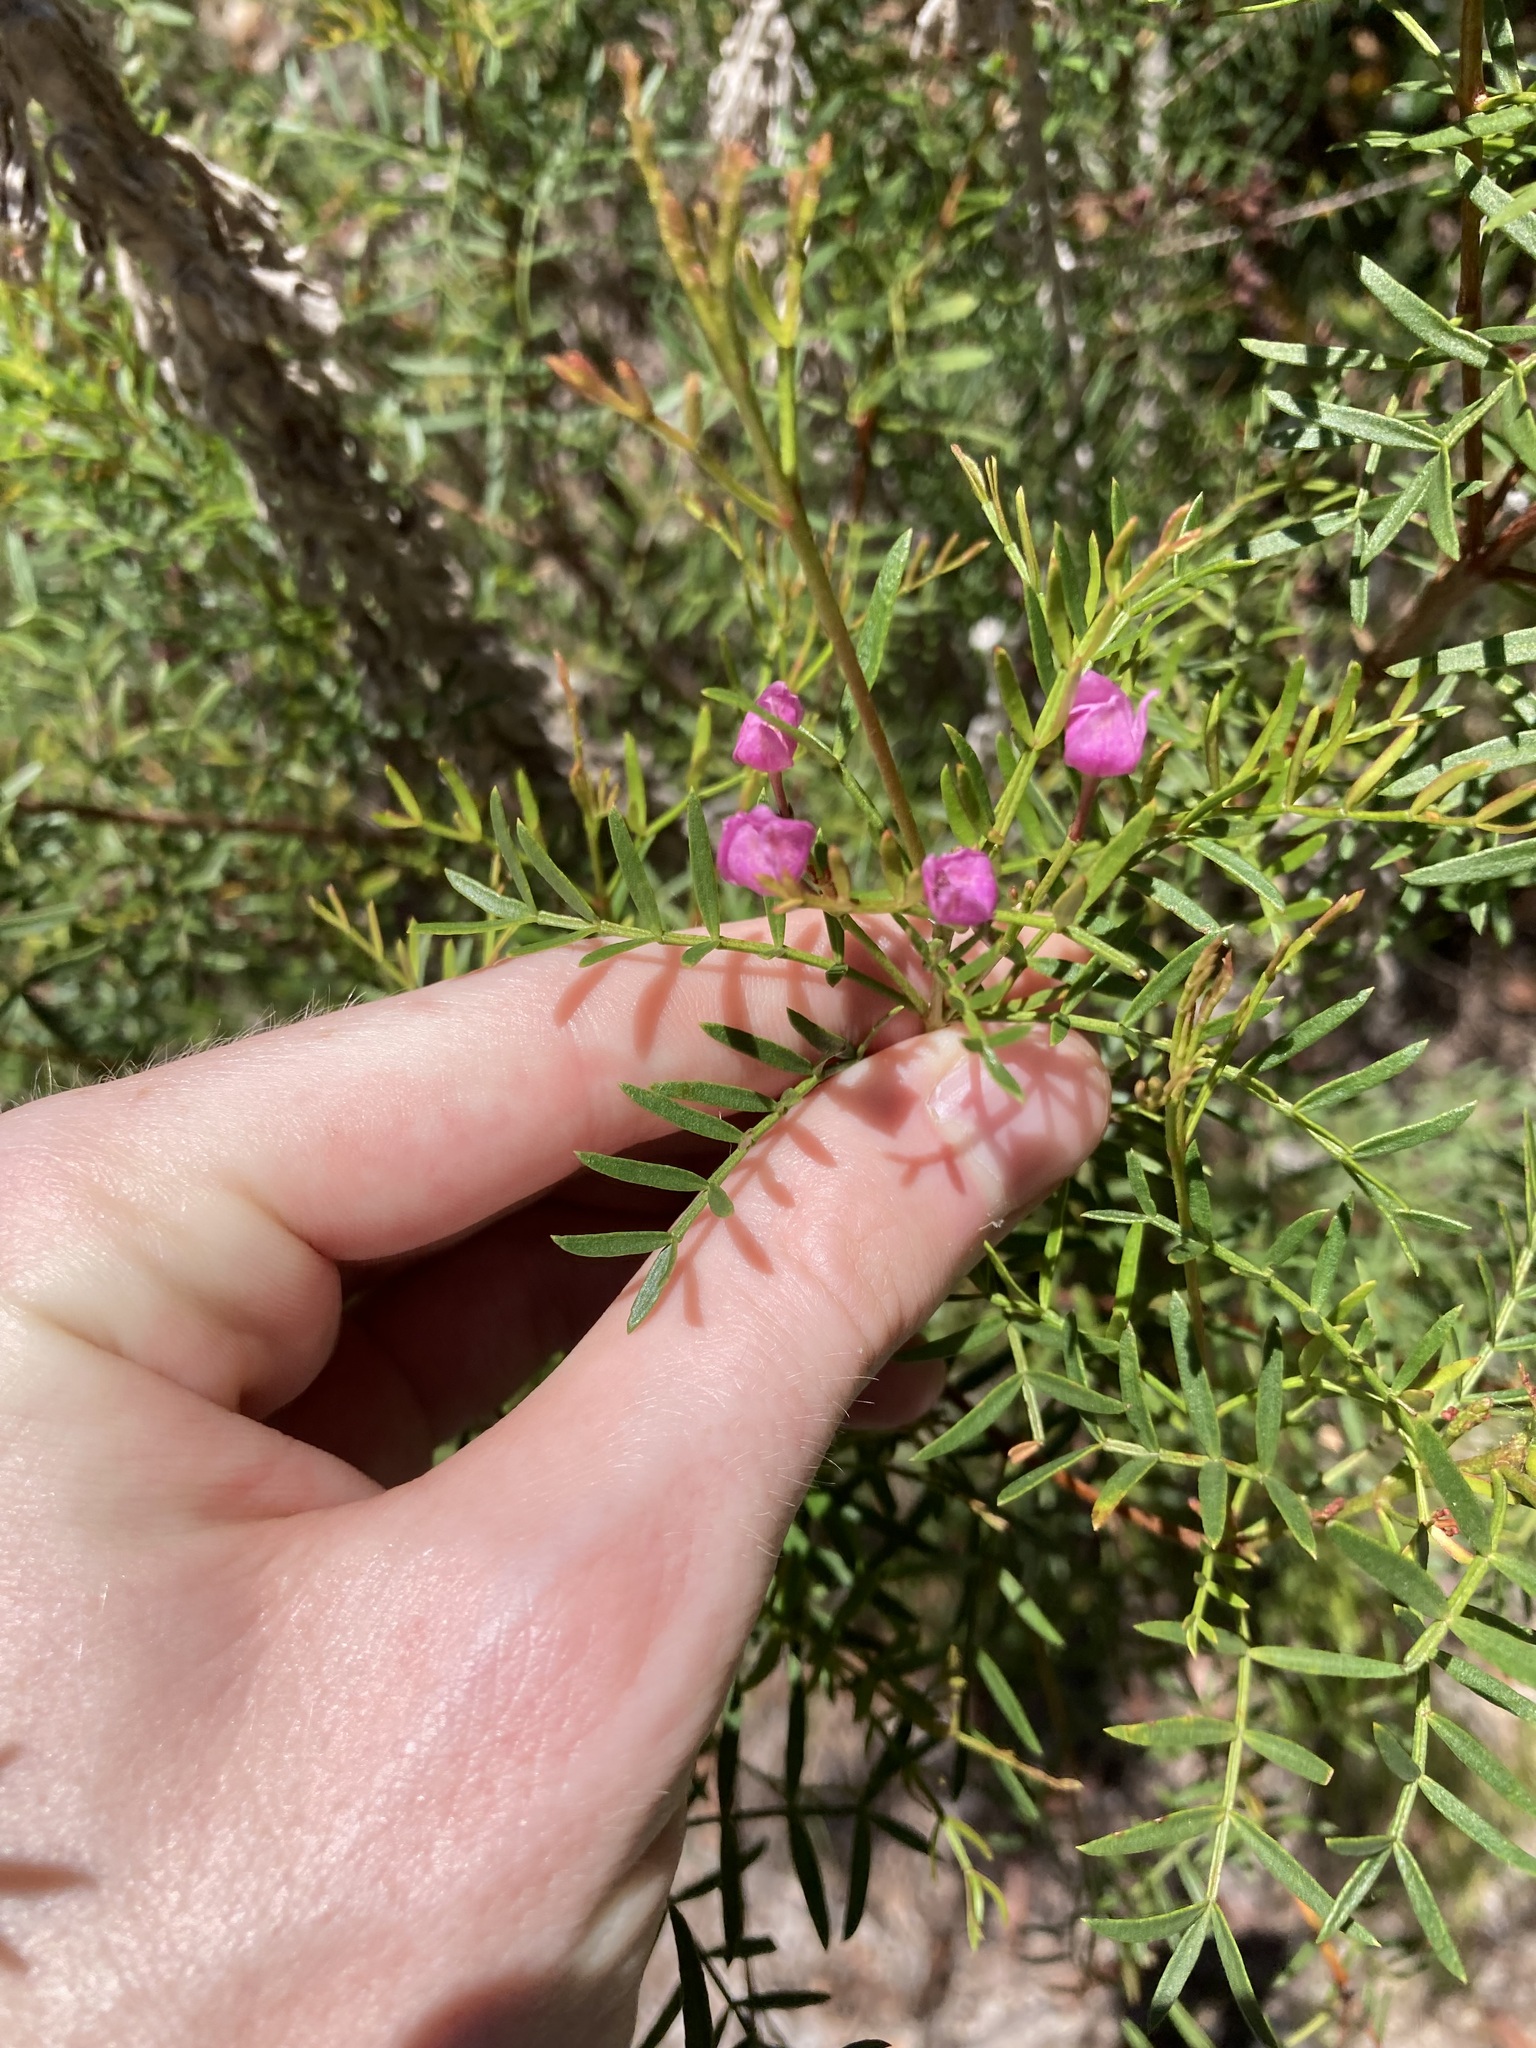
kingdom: Plantae
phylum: Tracheophyta
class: Magnoliopsida
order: Sapindales
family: Rutaceae
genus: Boronia
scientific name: Boronia pinnata
